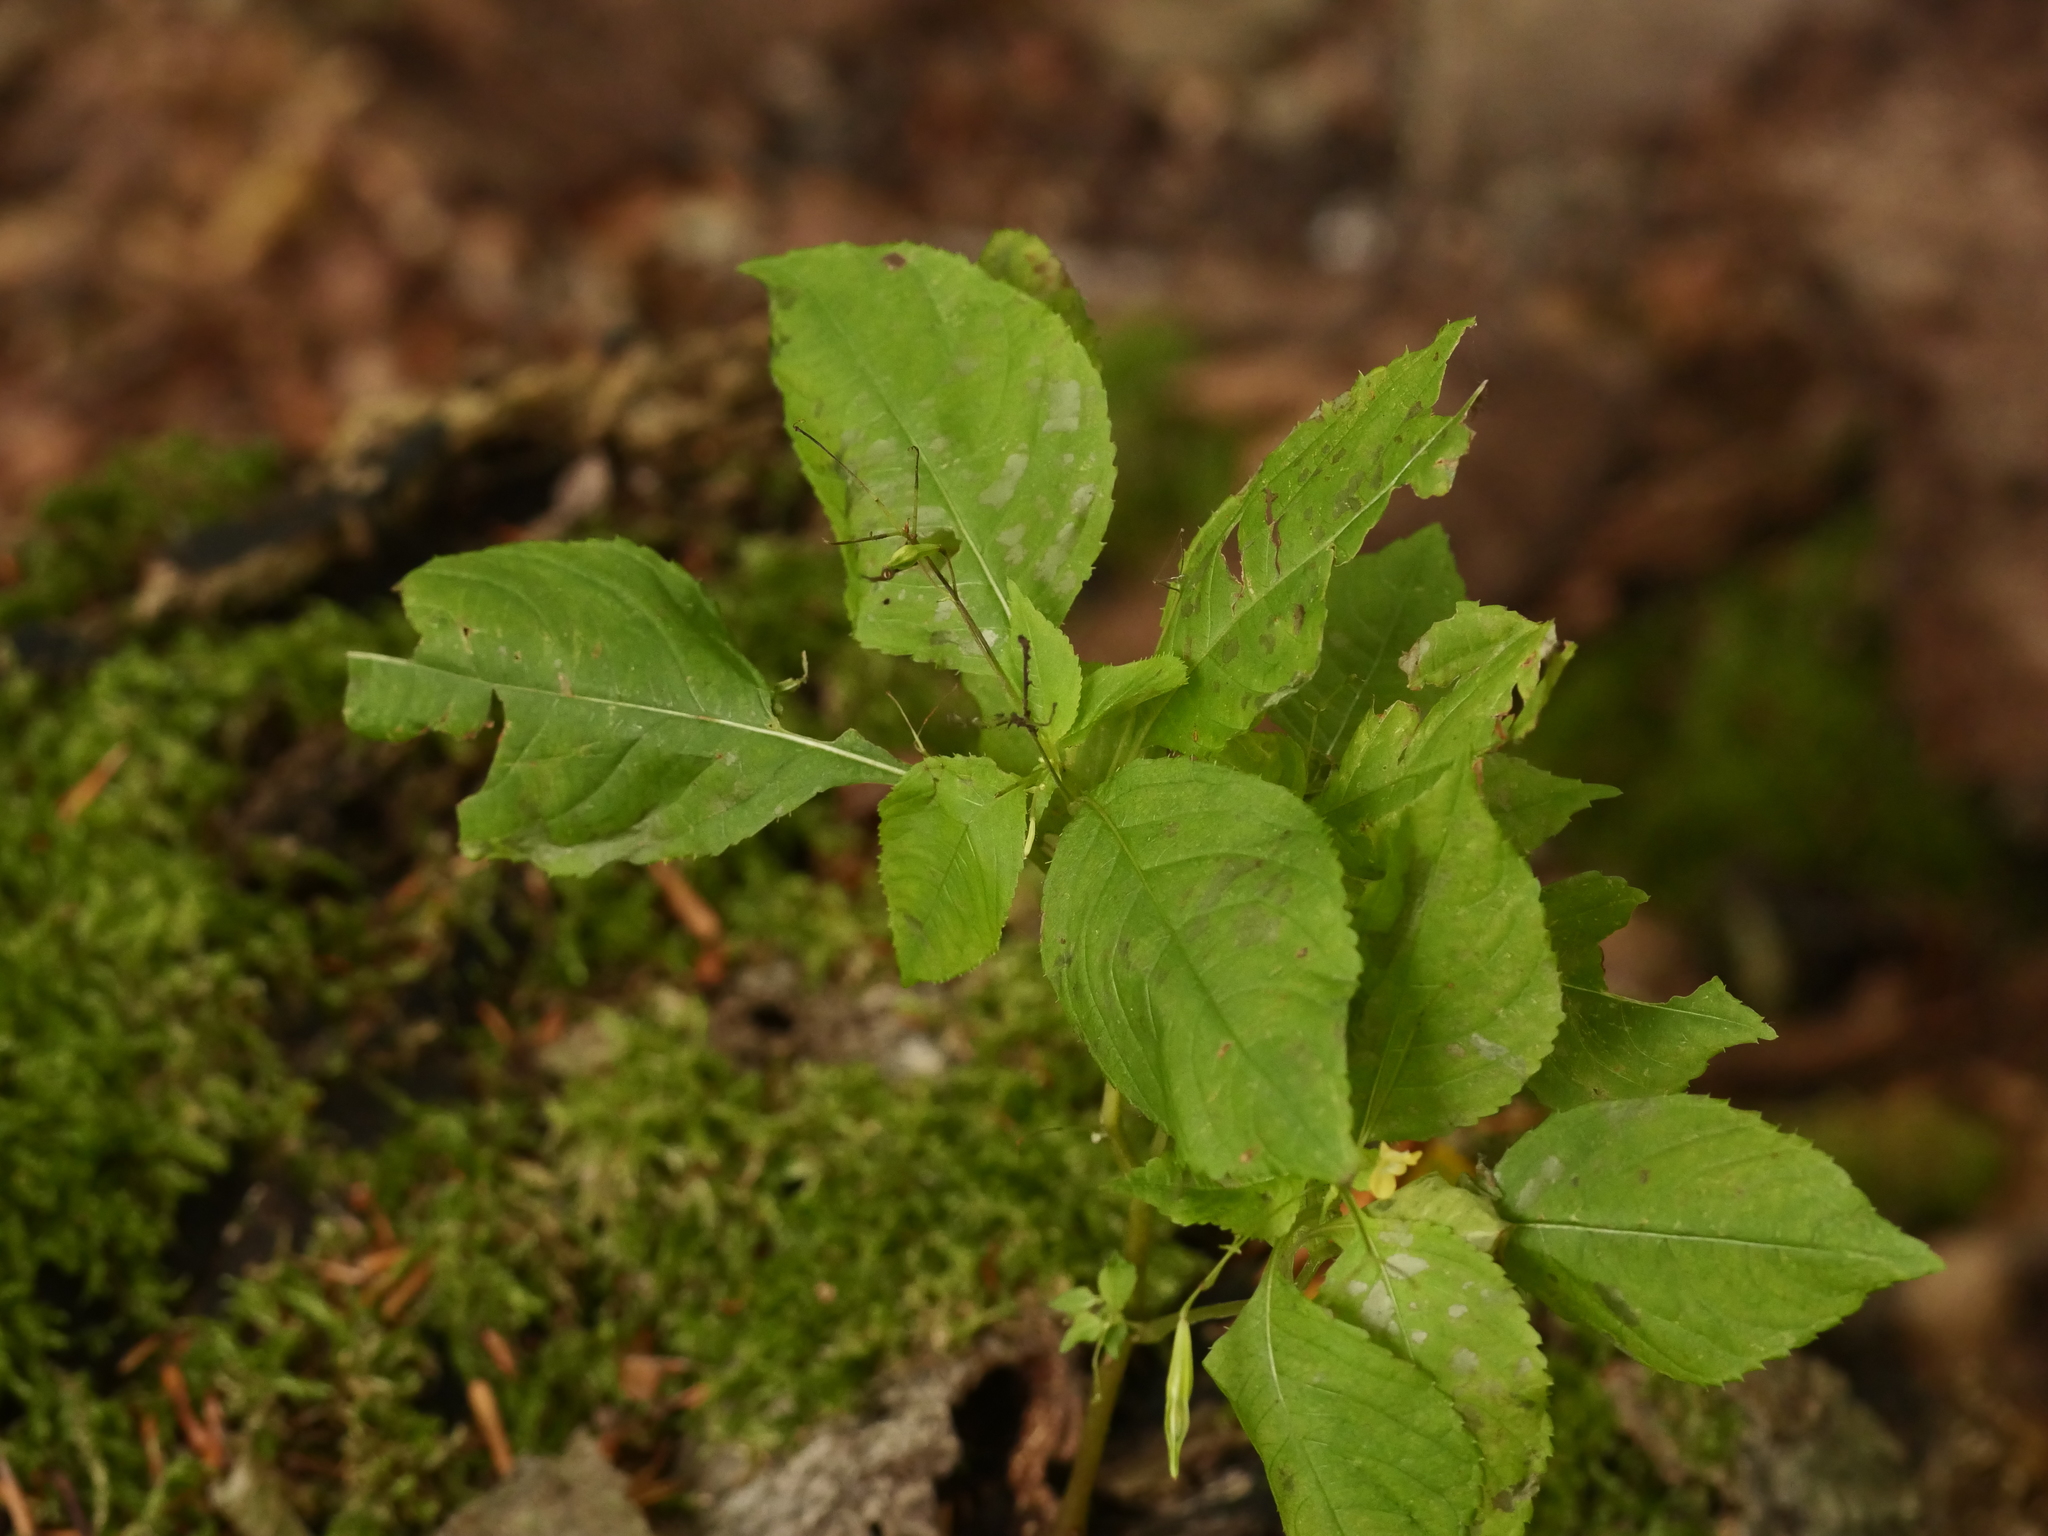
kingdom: Plantae
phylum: Tracheophyta
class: Magnoliopsida
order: Ericales
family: Balsaminaceae
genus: Impatiens
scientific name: Impatiens parviflora
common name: Small balsam
